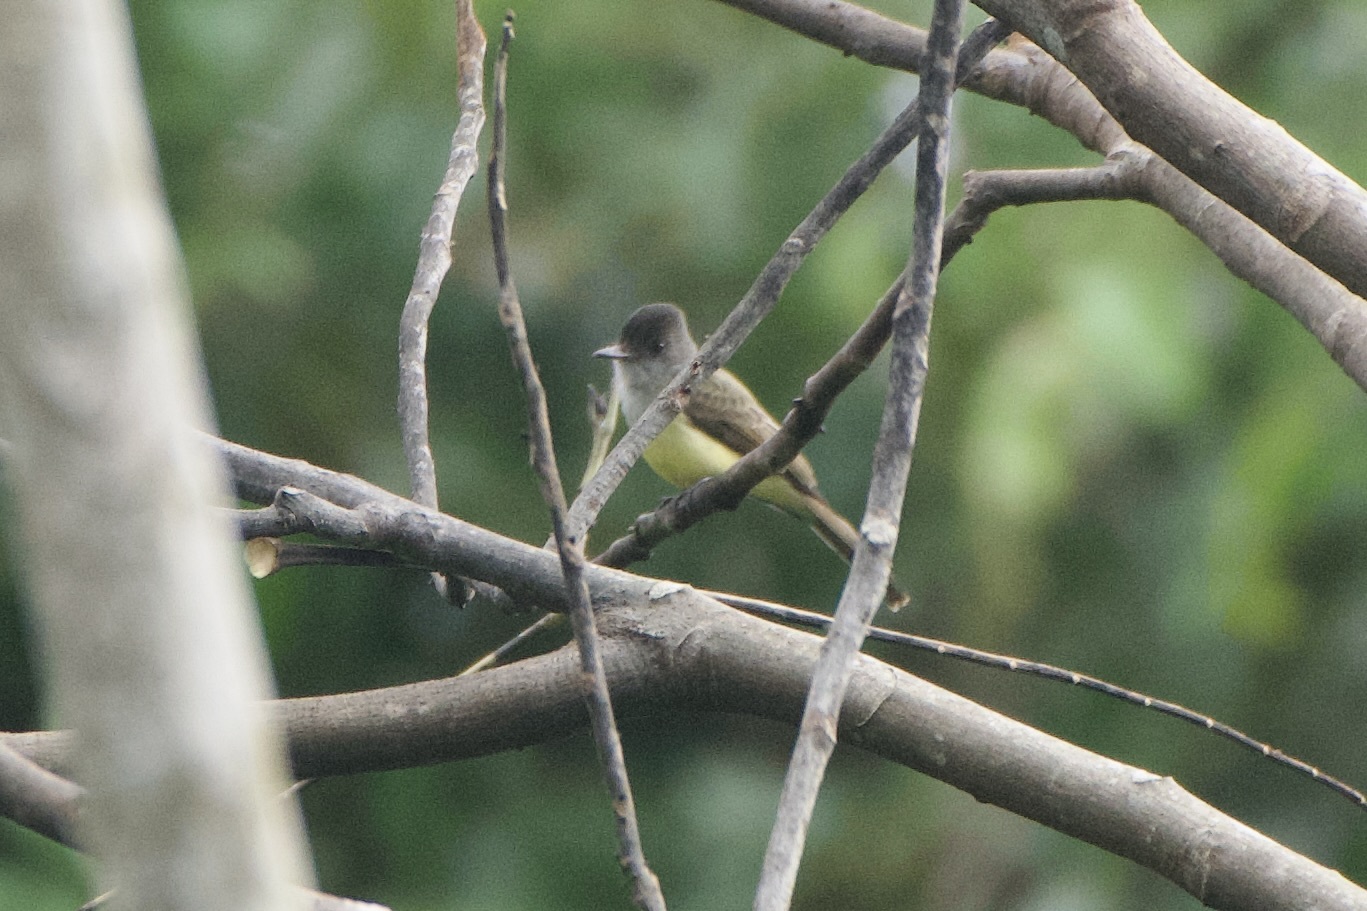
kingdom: Animalia
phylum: Chordata
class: Aves
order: Passeriformes
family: Tyrannidae
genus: Myiarchus
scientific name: Myiarchus tuberculifer
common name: Dusky-capped flycatcher
